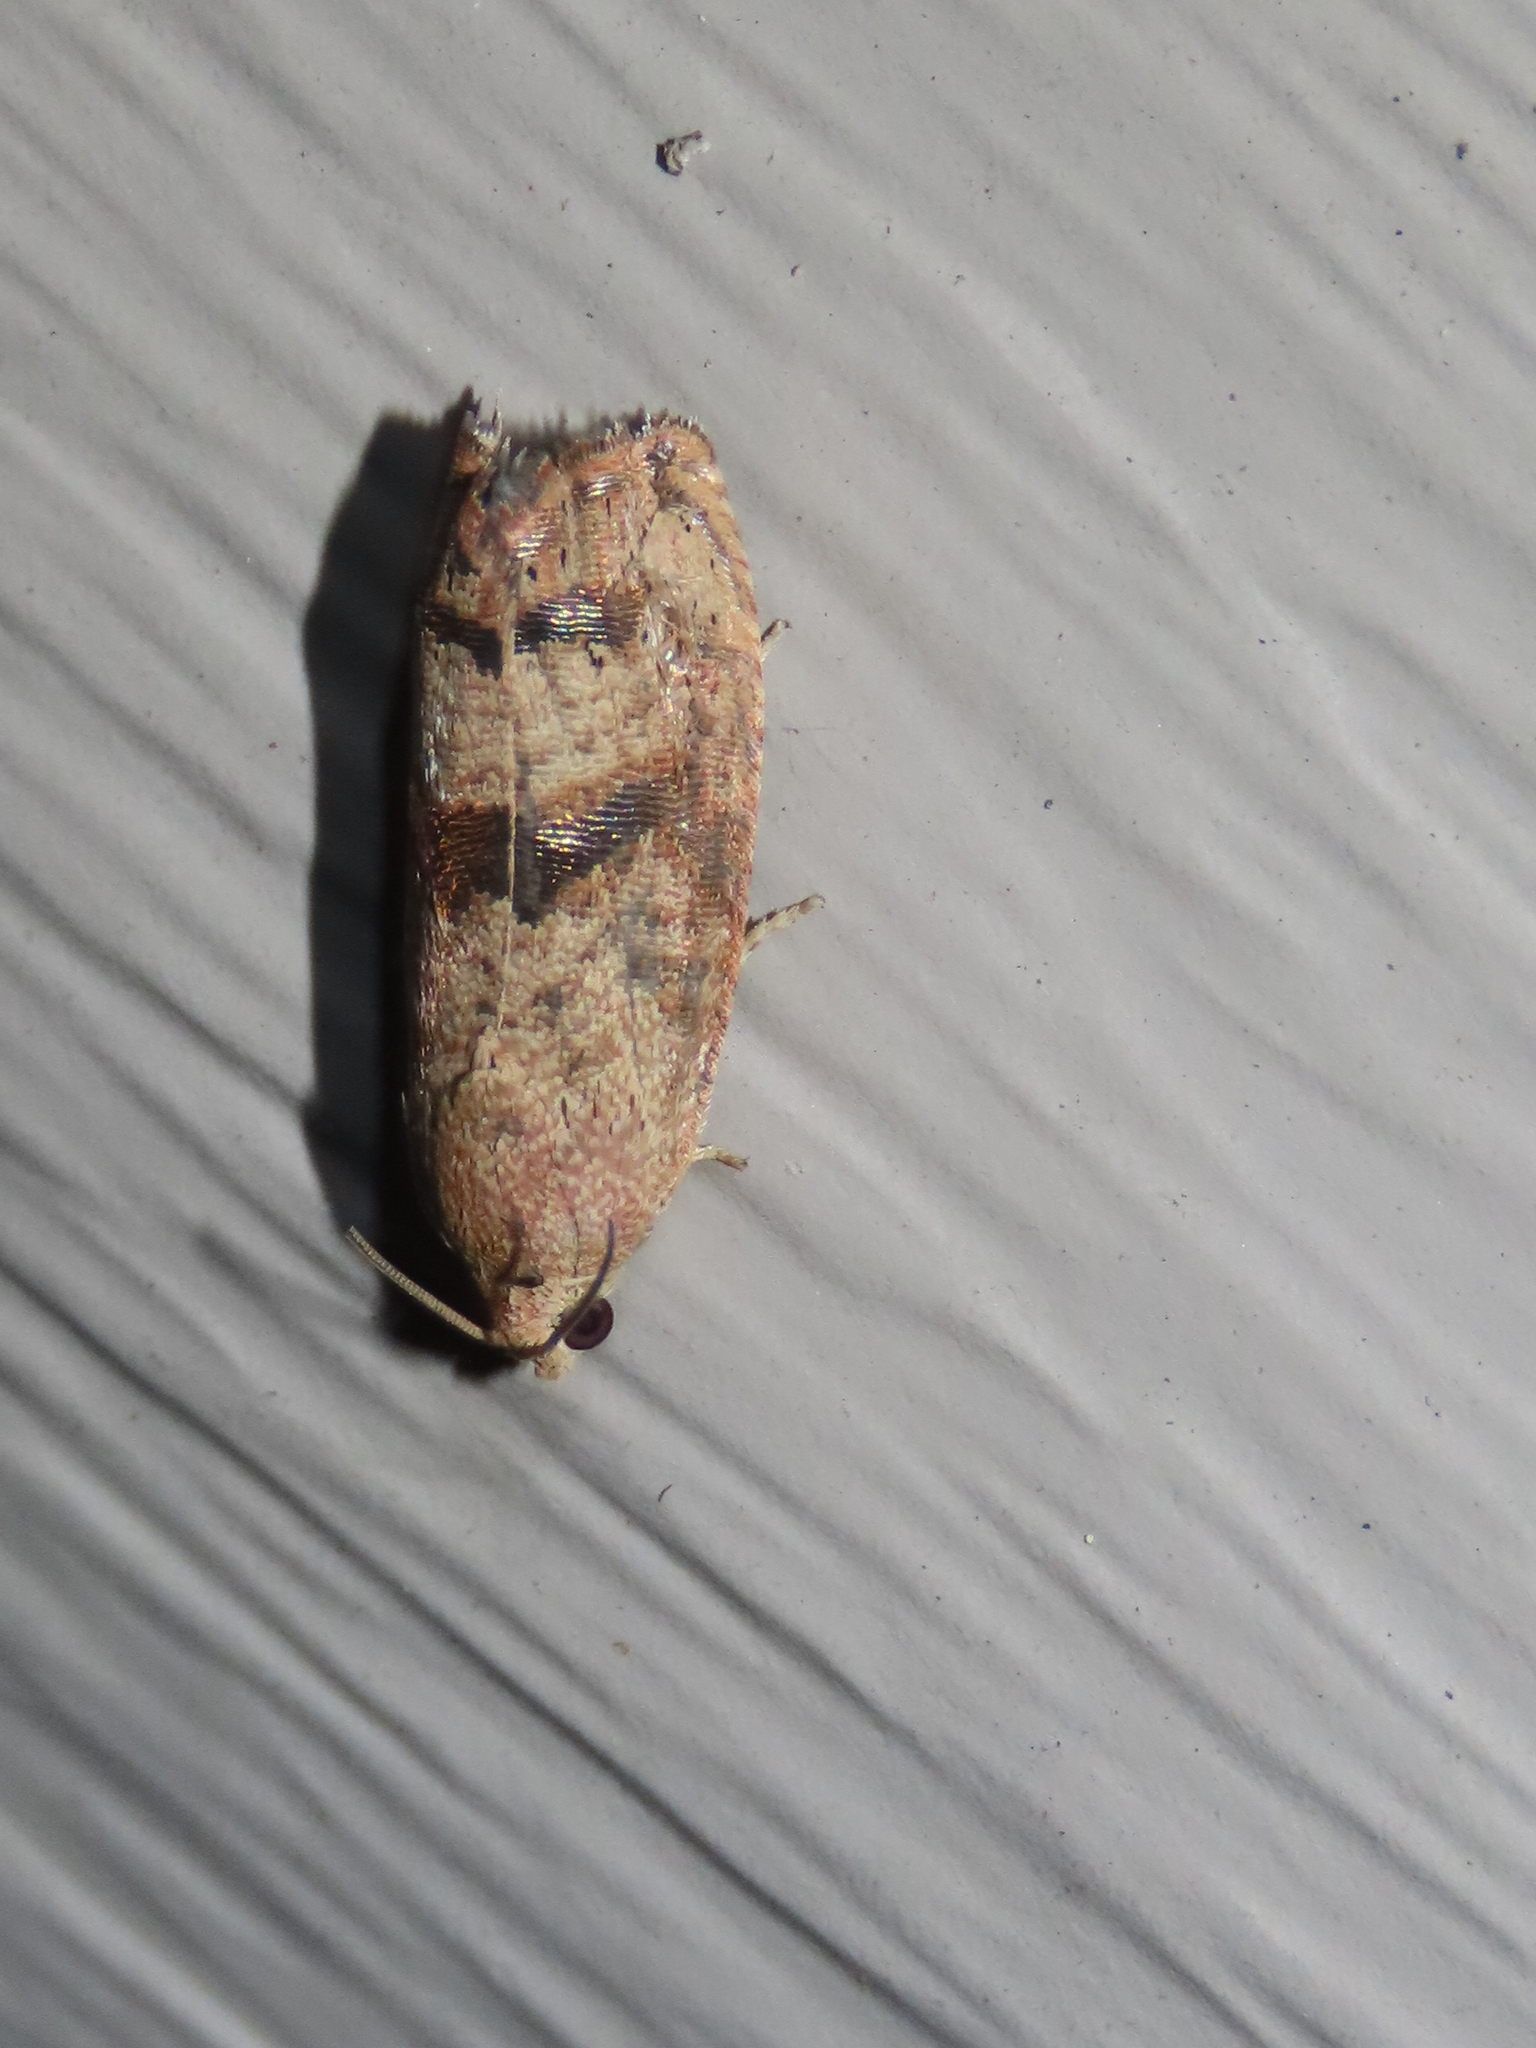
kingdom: Animalia
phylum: Arthropoda
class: Insecta
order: Lepidoptera
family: Tortricidae
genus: Cydia
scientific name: Cydia latiferreana
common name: Filbertworm moth
